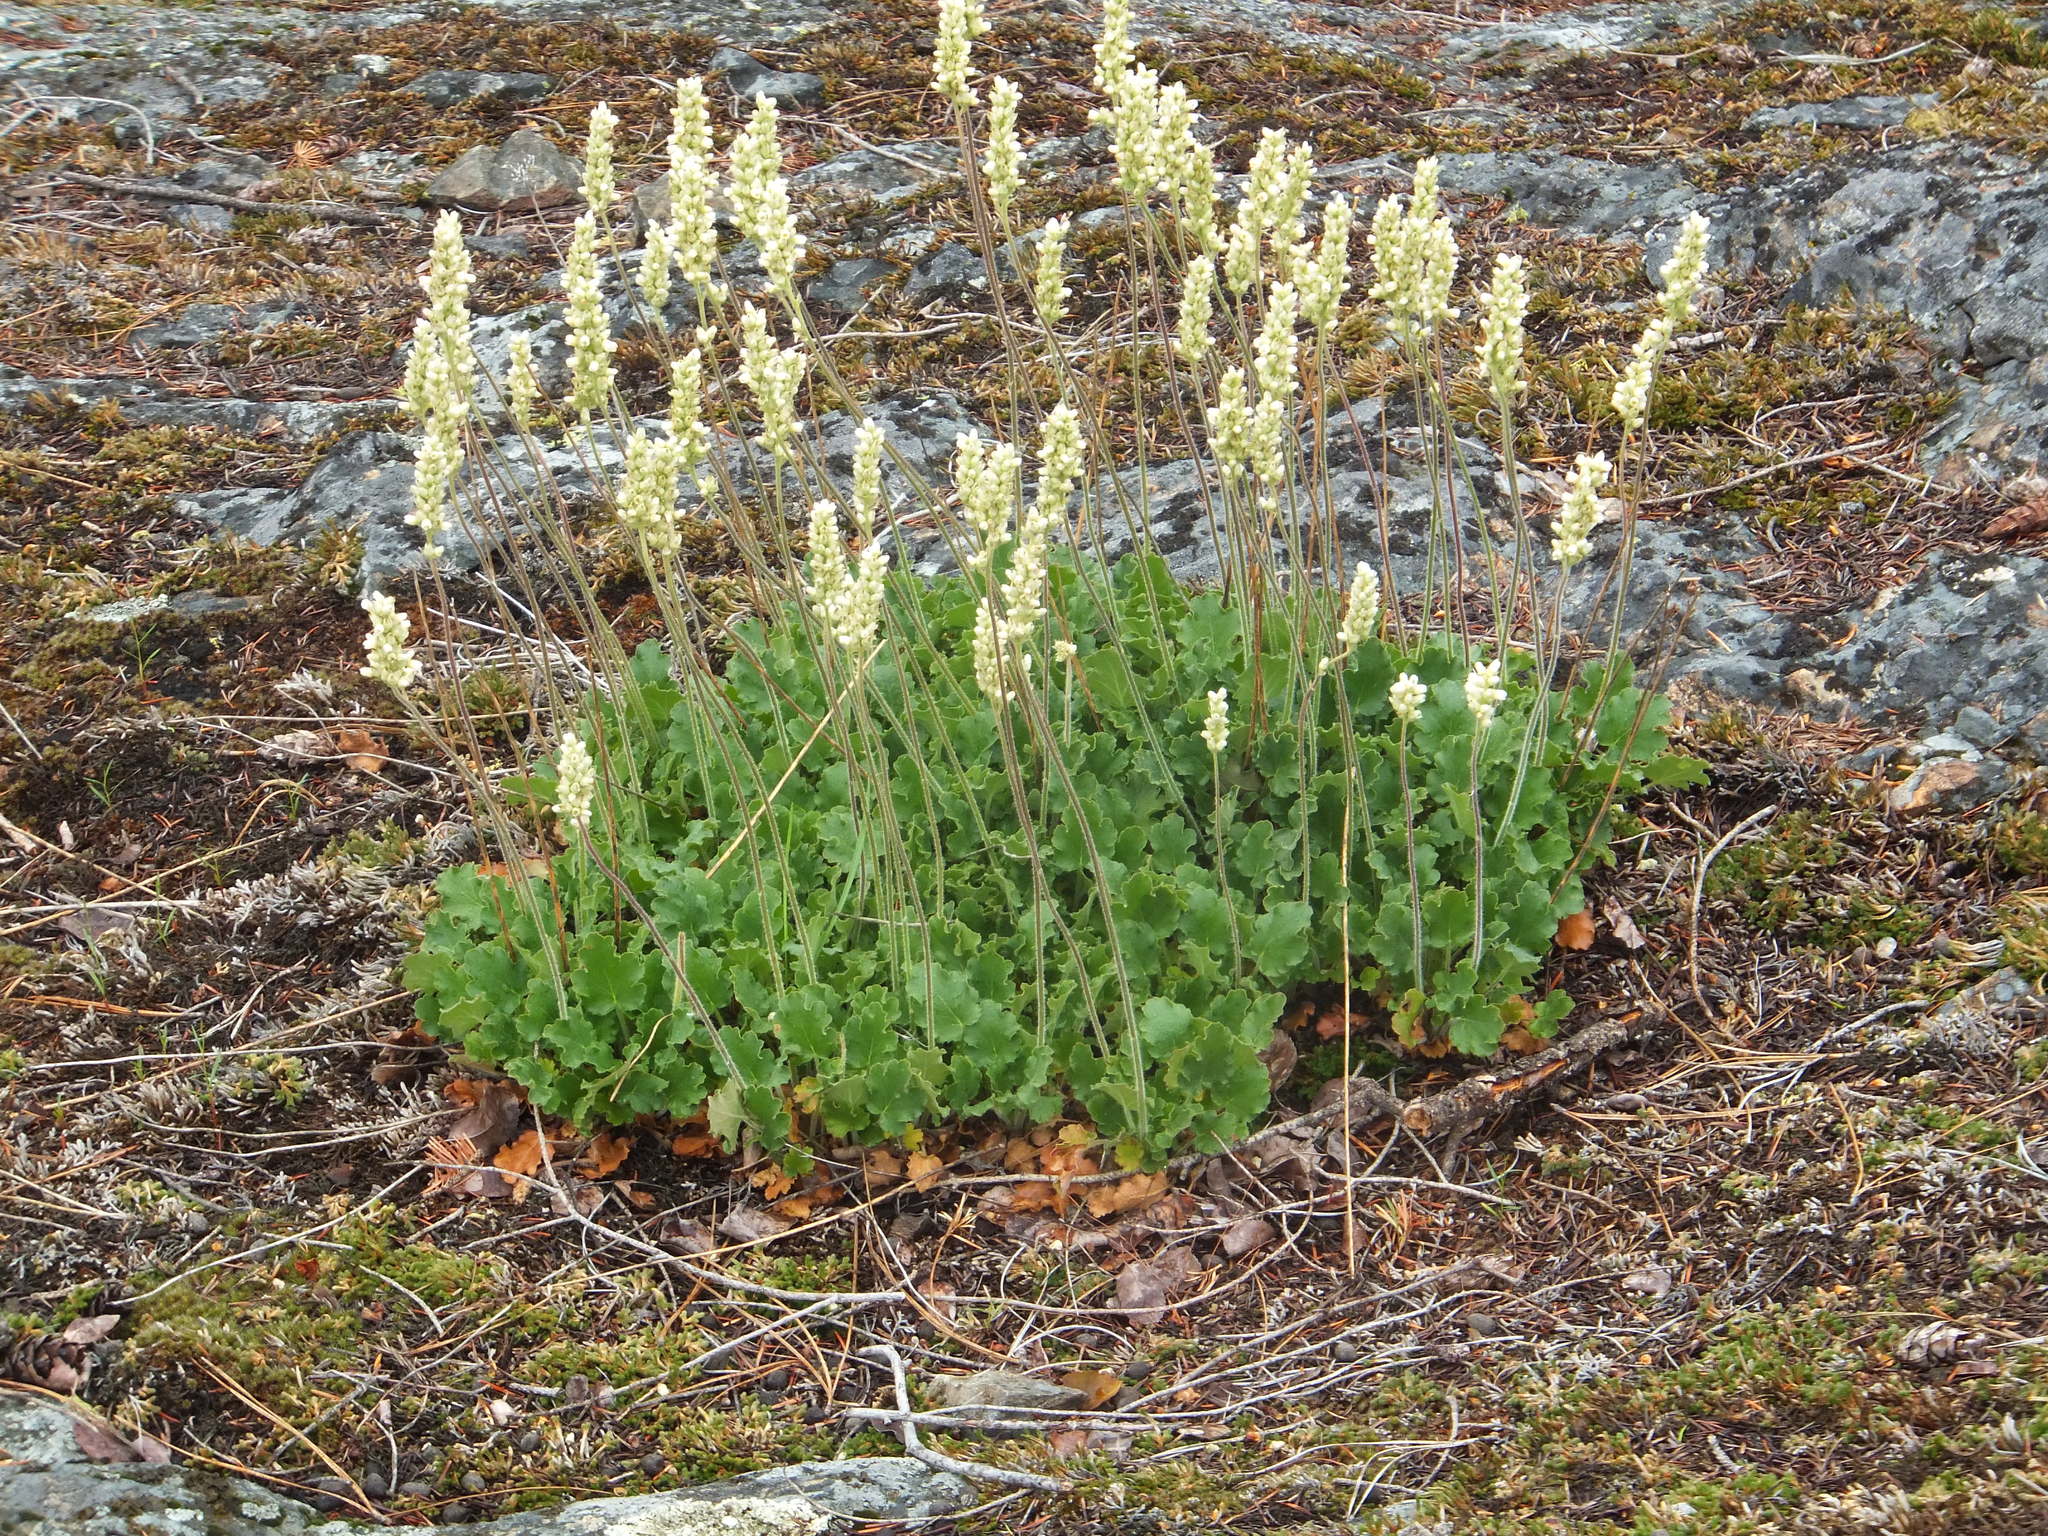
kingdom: Plantae
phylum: Tracheophyta
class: Magnoliopsida
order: Saxifragales
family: Saxifragaceae
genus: Heuchera
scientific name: Heuchera cylindrica
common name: Mat alumroot
